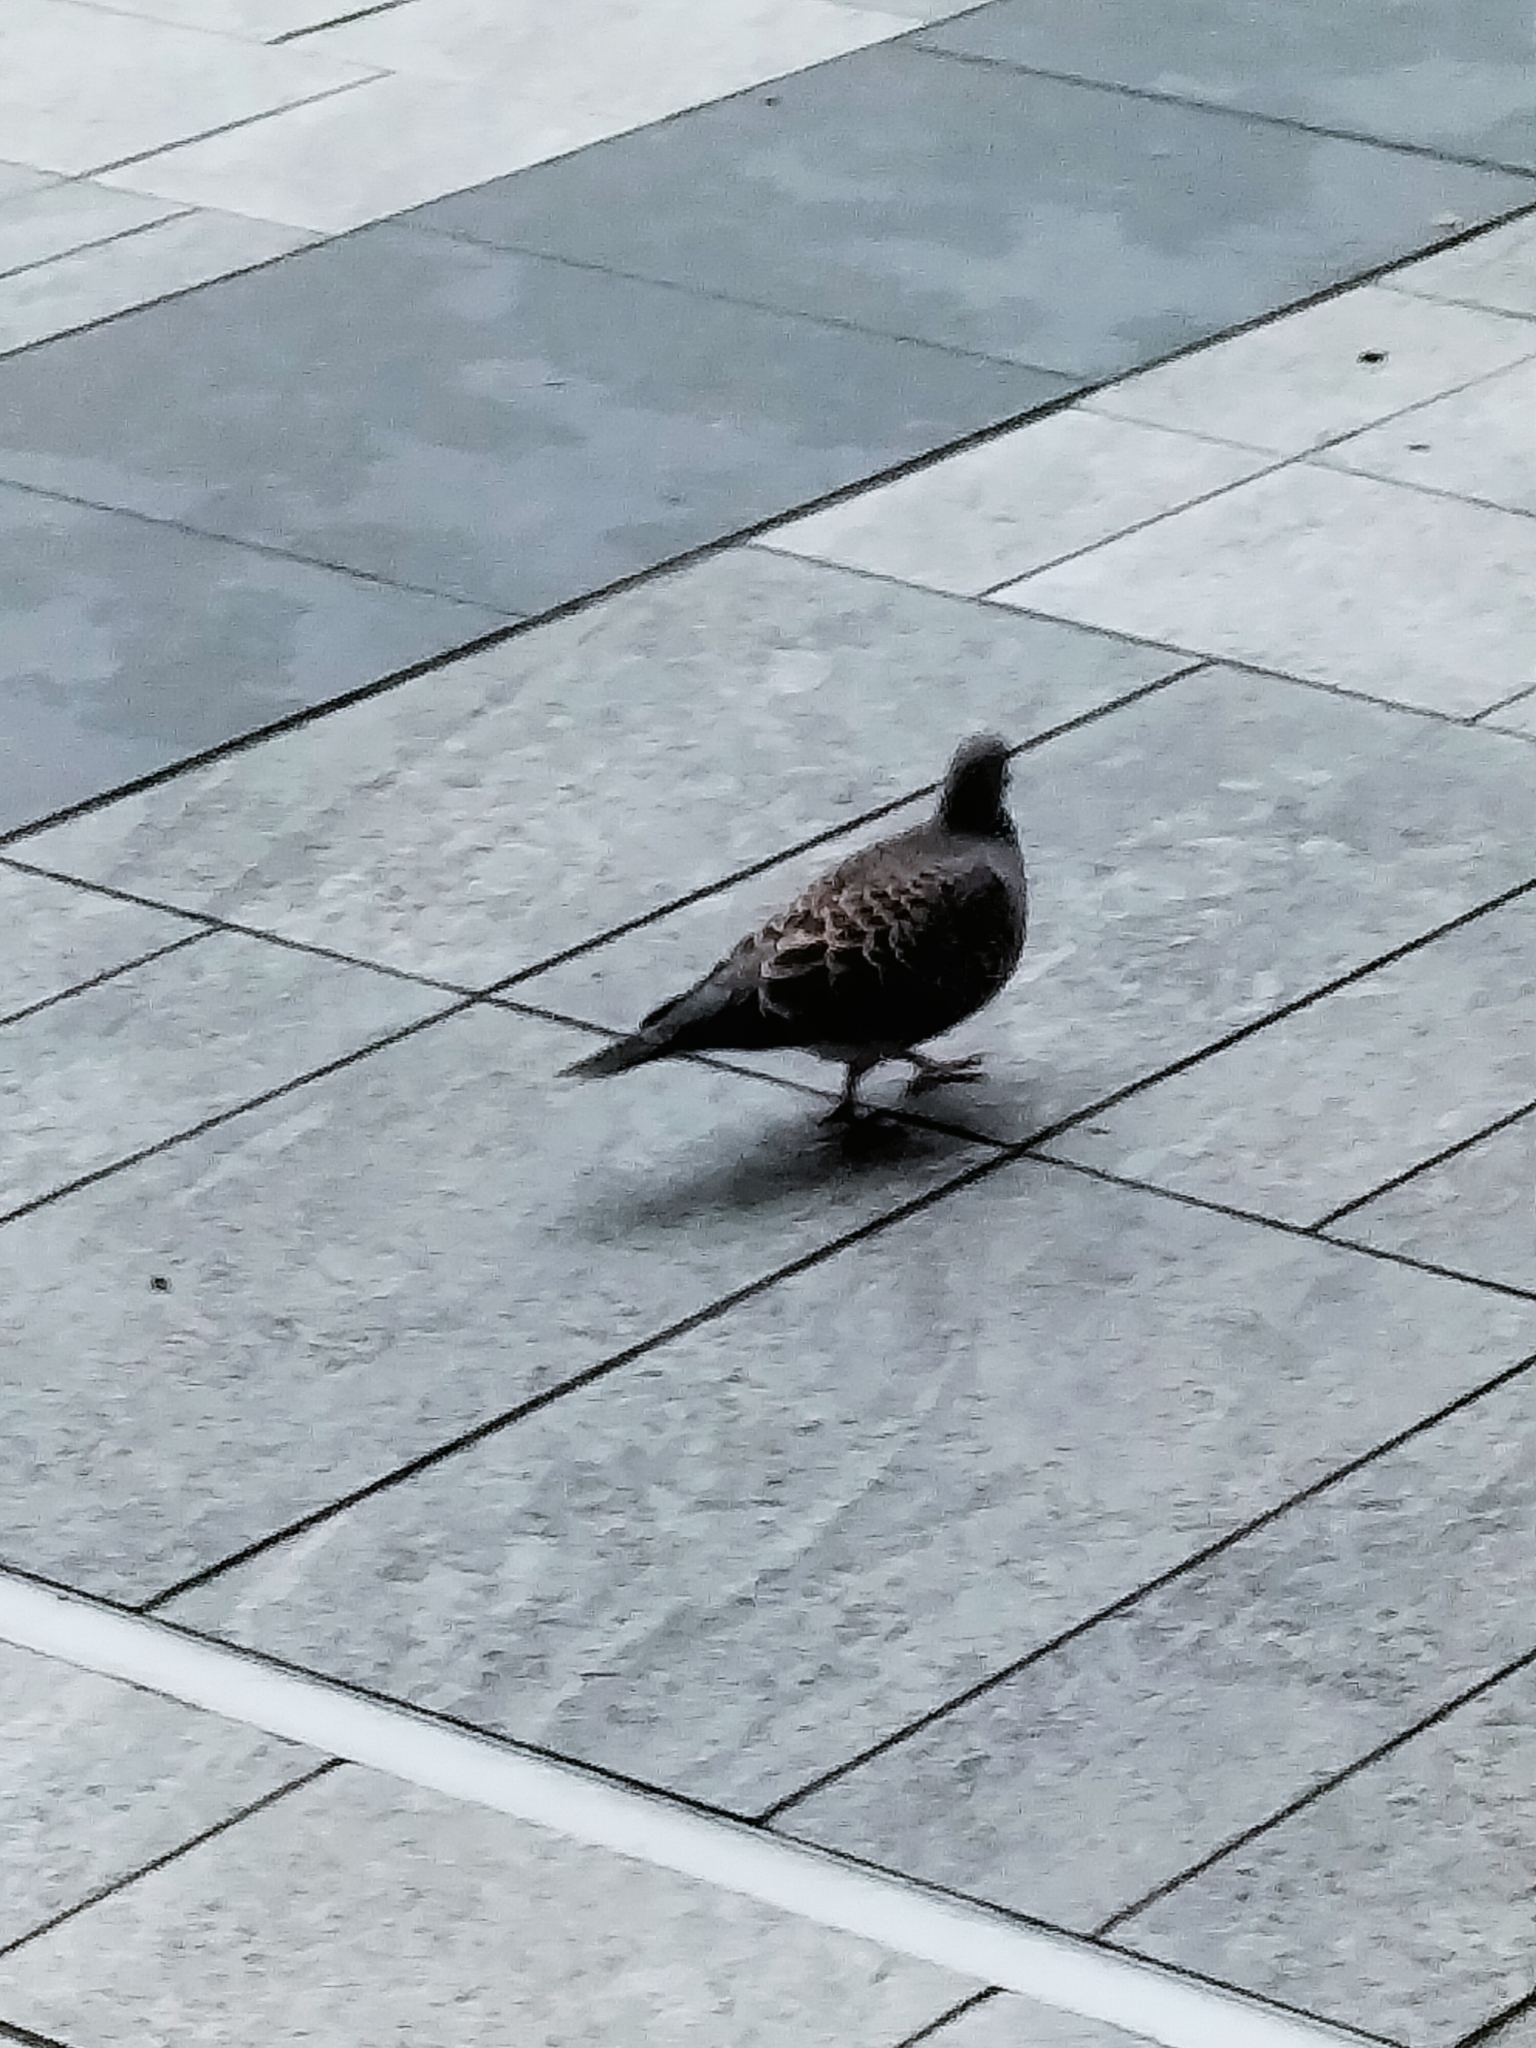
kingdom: Animalia
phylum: Chordata
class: Aves
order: Columbiformes
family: Columbidae
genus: Streptopelia
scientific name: Streptopelia orientalis
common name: Oriental turtle dove
